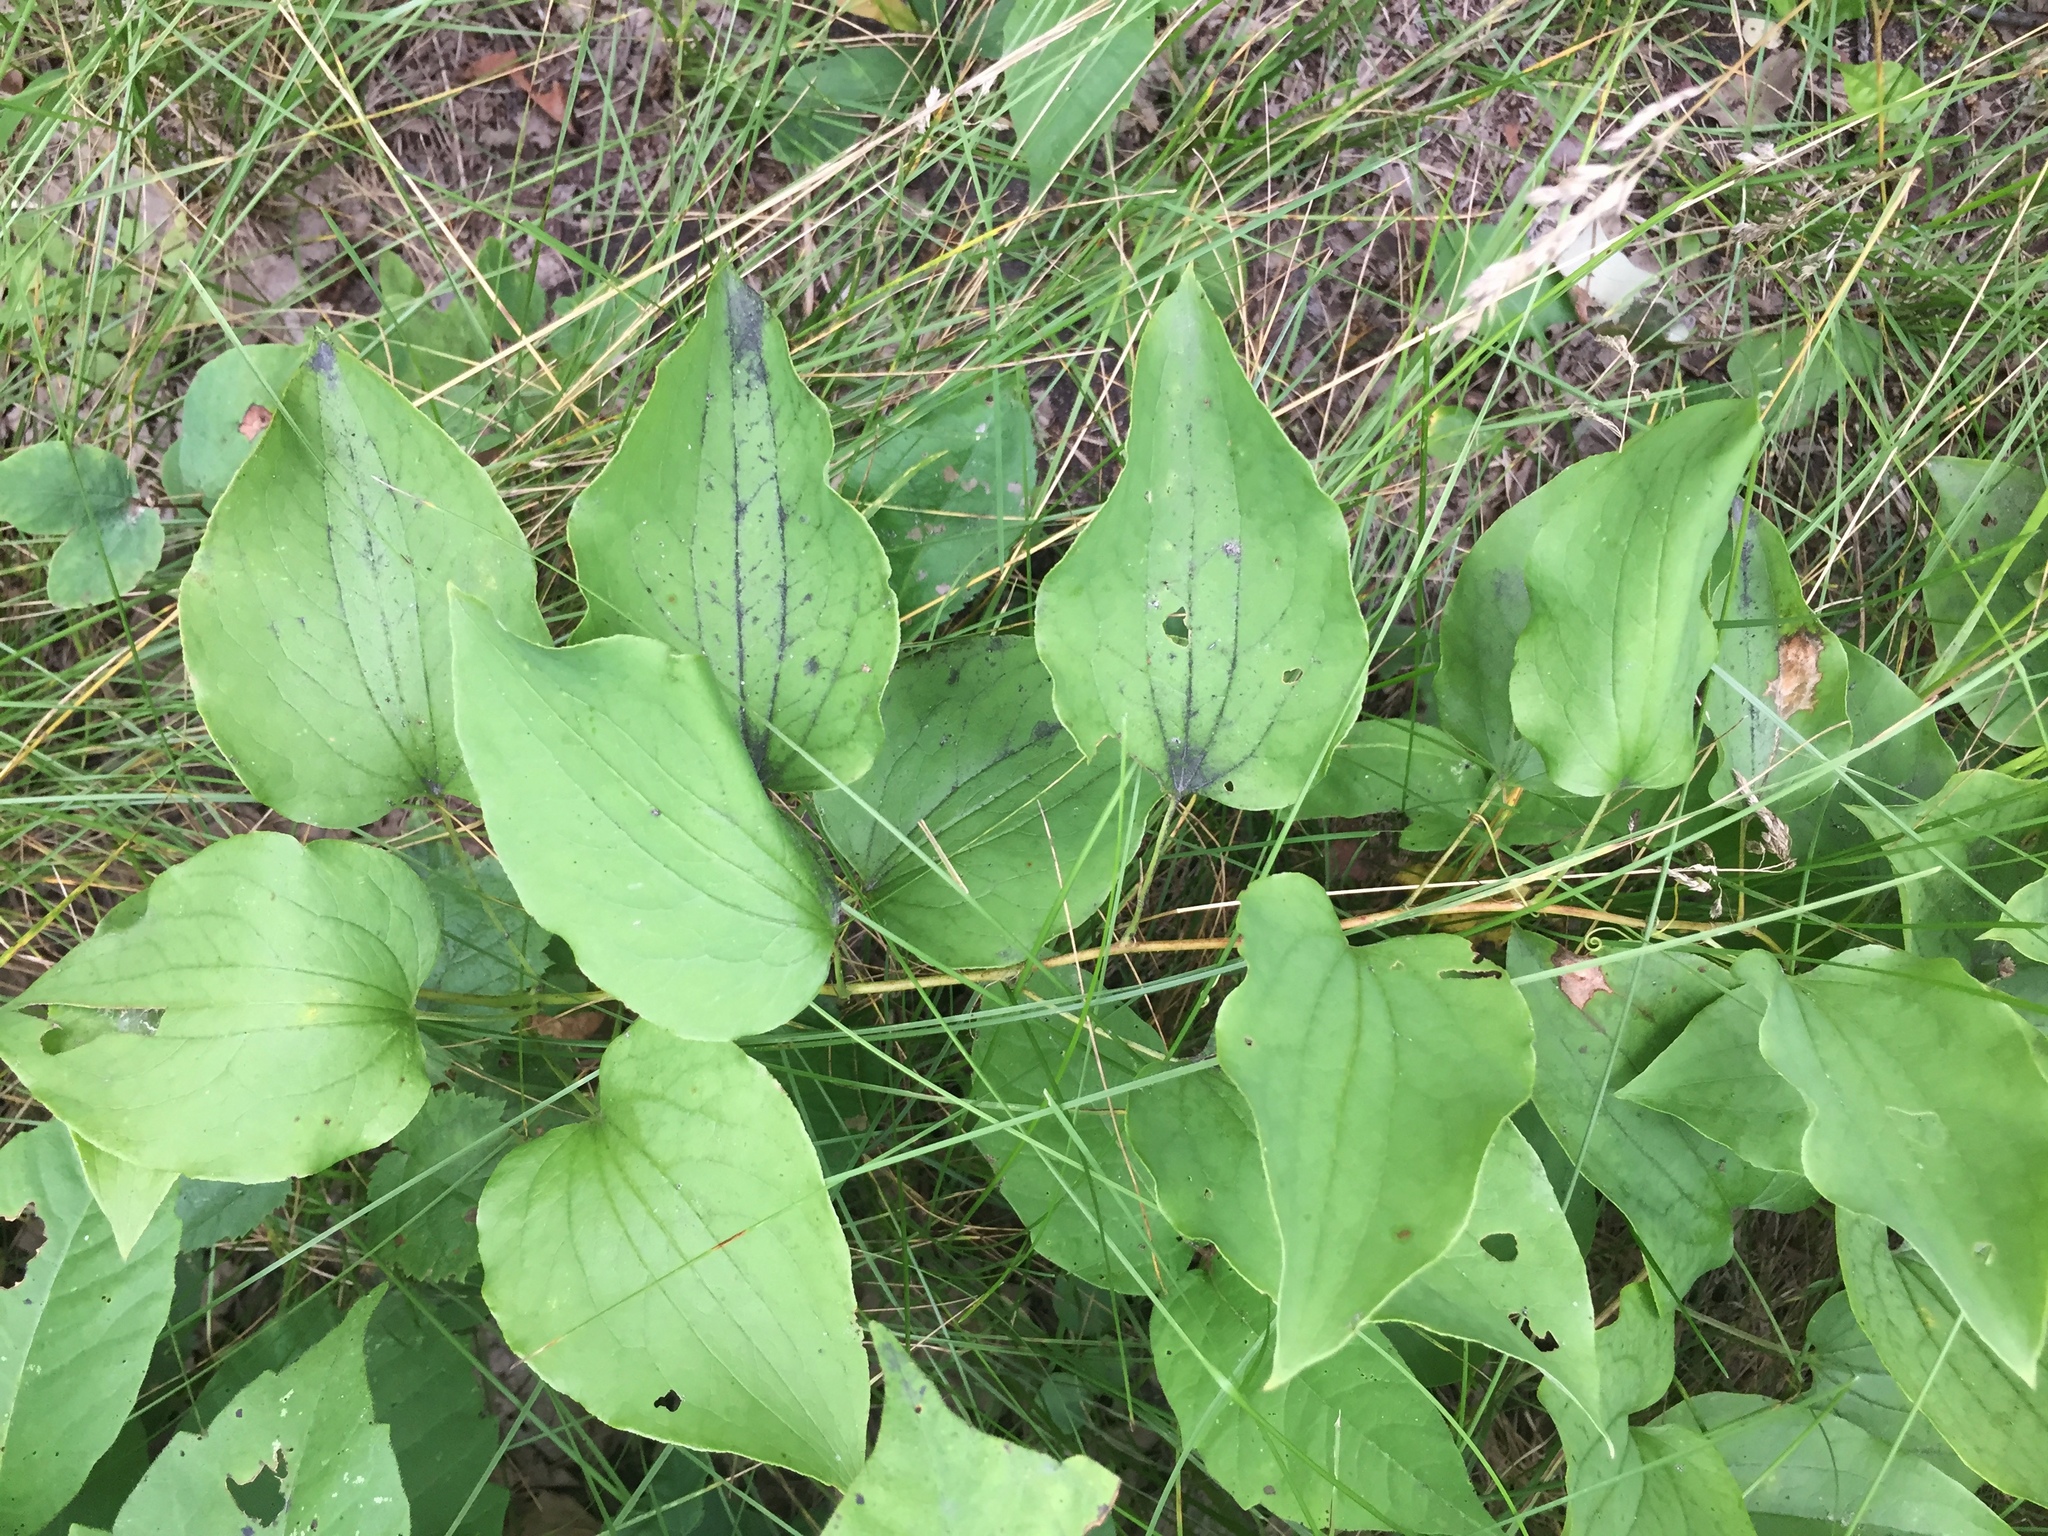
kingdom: Plantae
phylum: Tracheophyta
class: Liliopsida
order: Liliales
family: Smilacaceae
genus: Smilax
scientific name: Smilax lasioneura
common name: Blue ridge carrionflower
